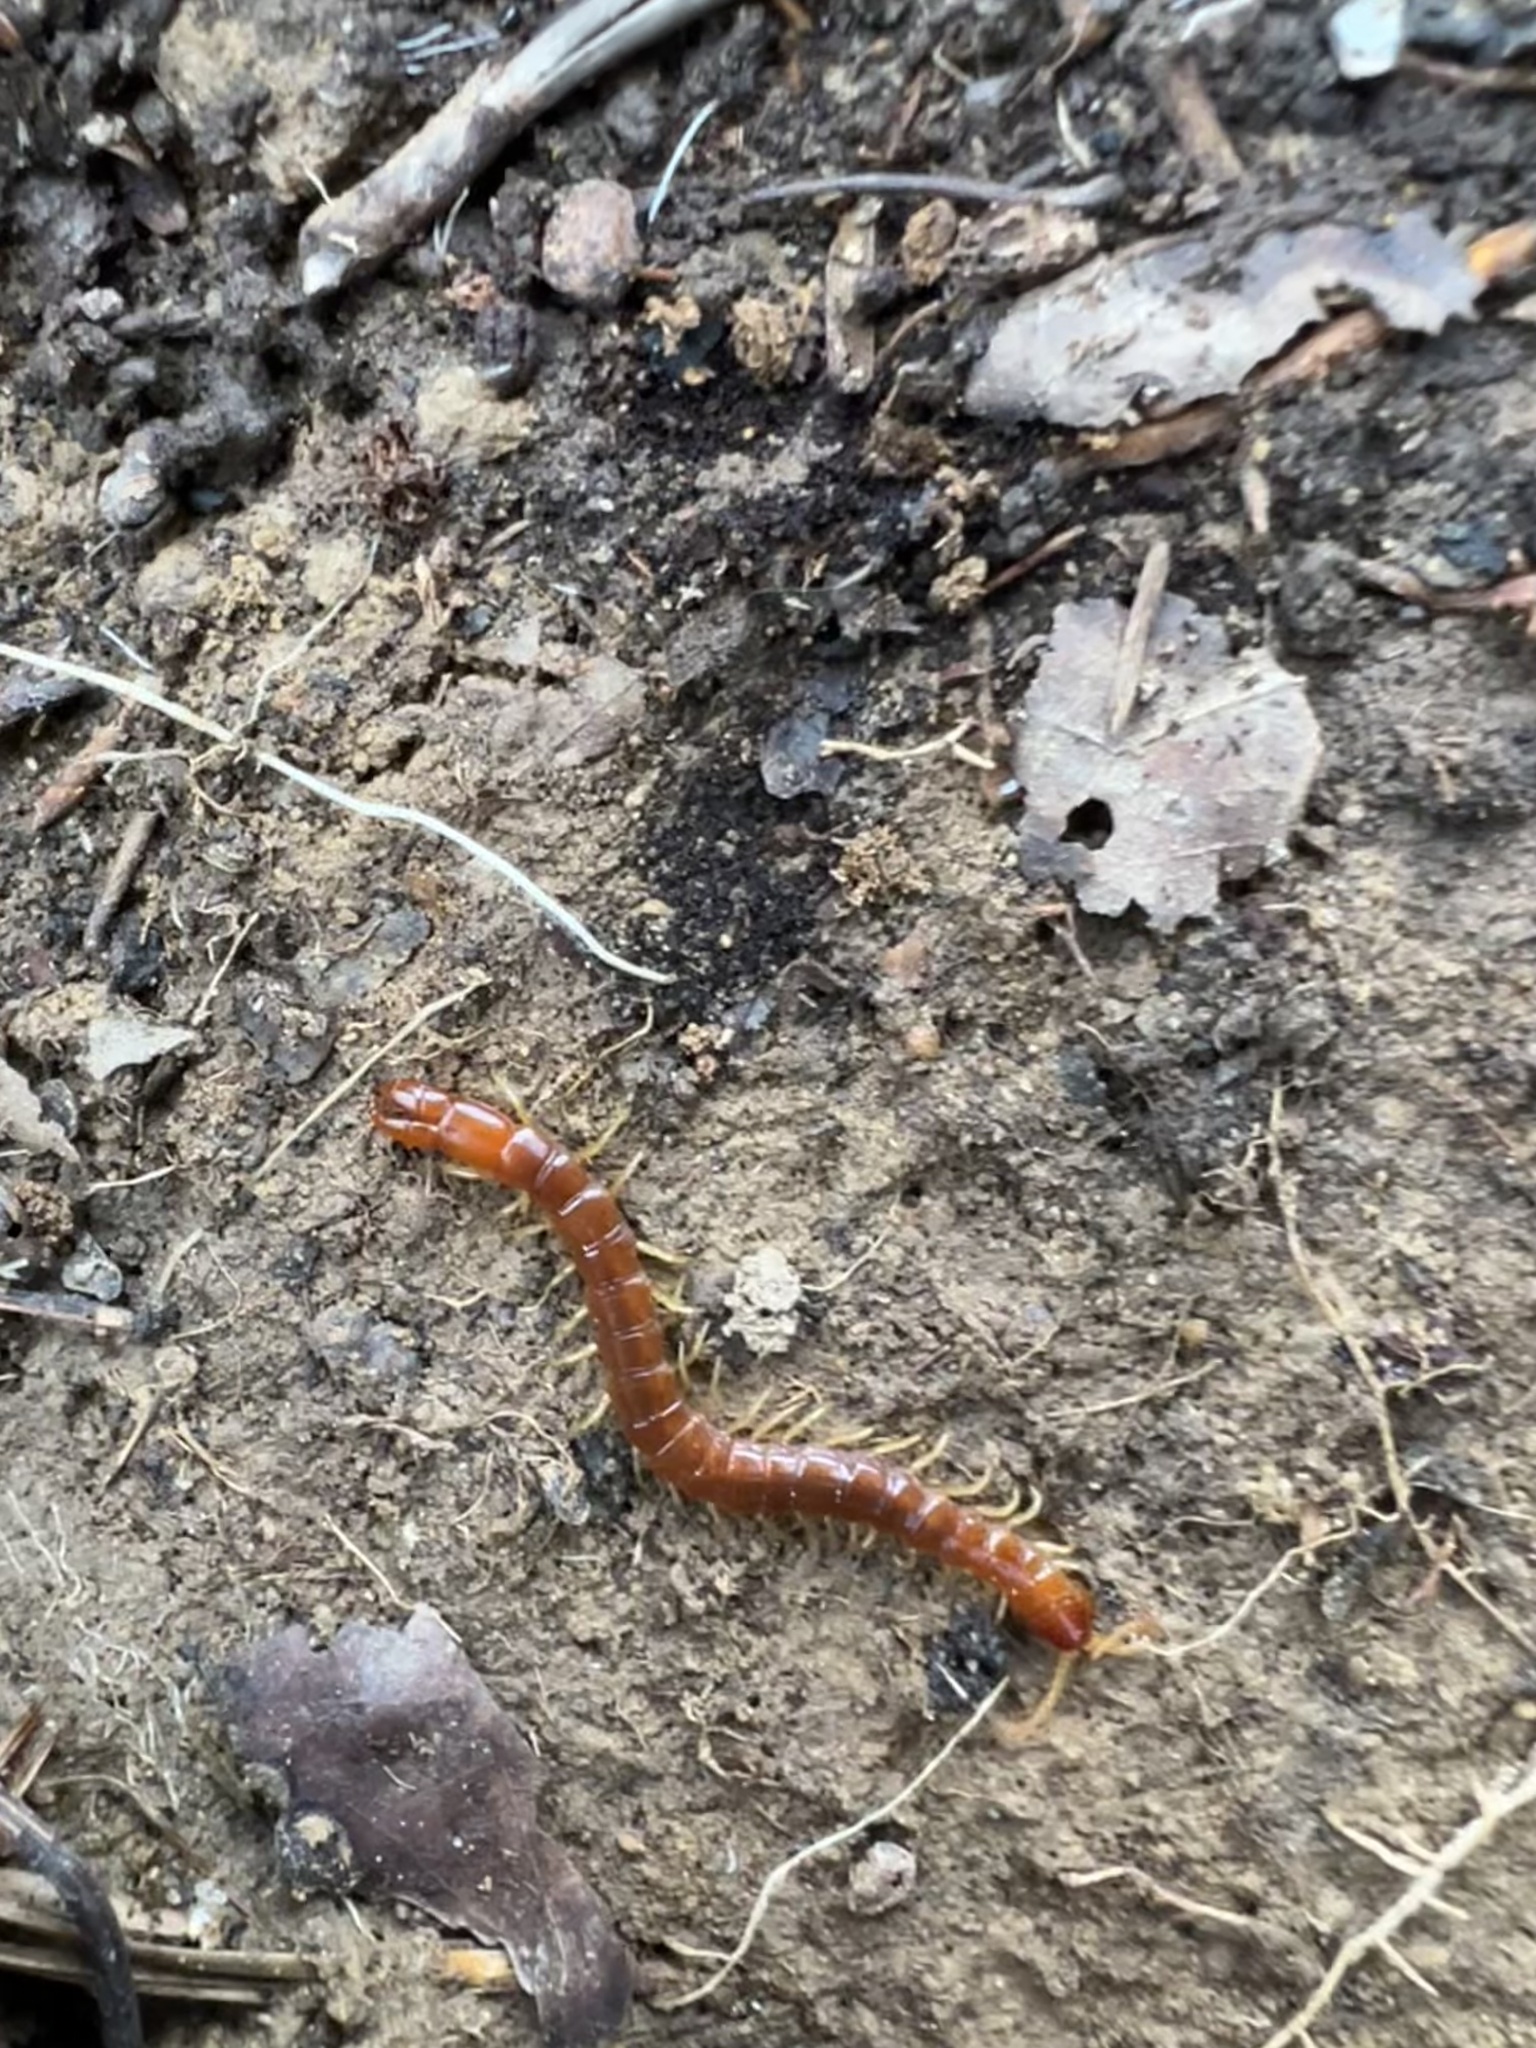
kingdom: Animalia
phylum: Arthropoda
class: Chilopoda
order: Scolopendromorpha
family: Cryptopidae
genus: Theatops
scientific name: Theatops posticus
